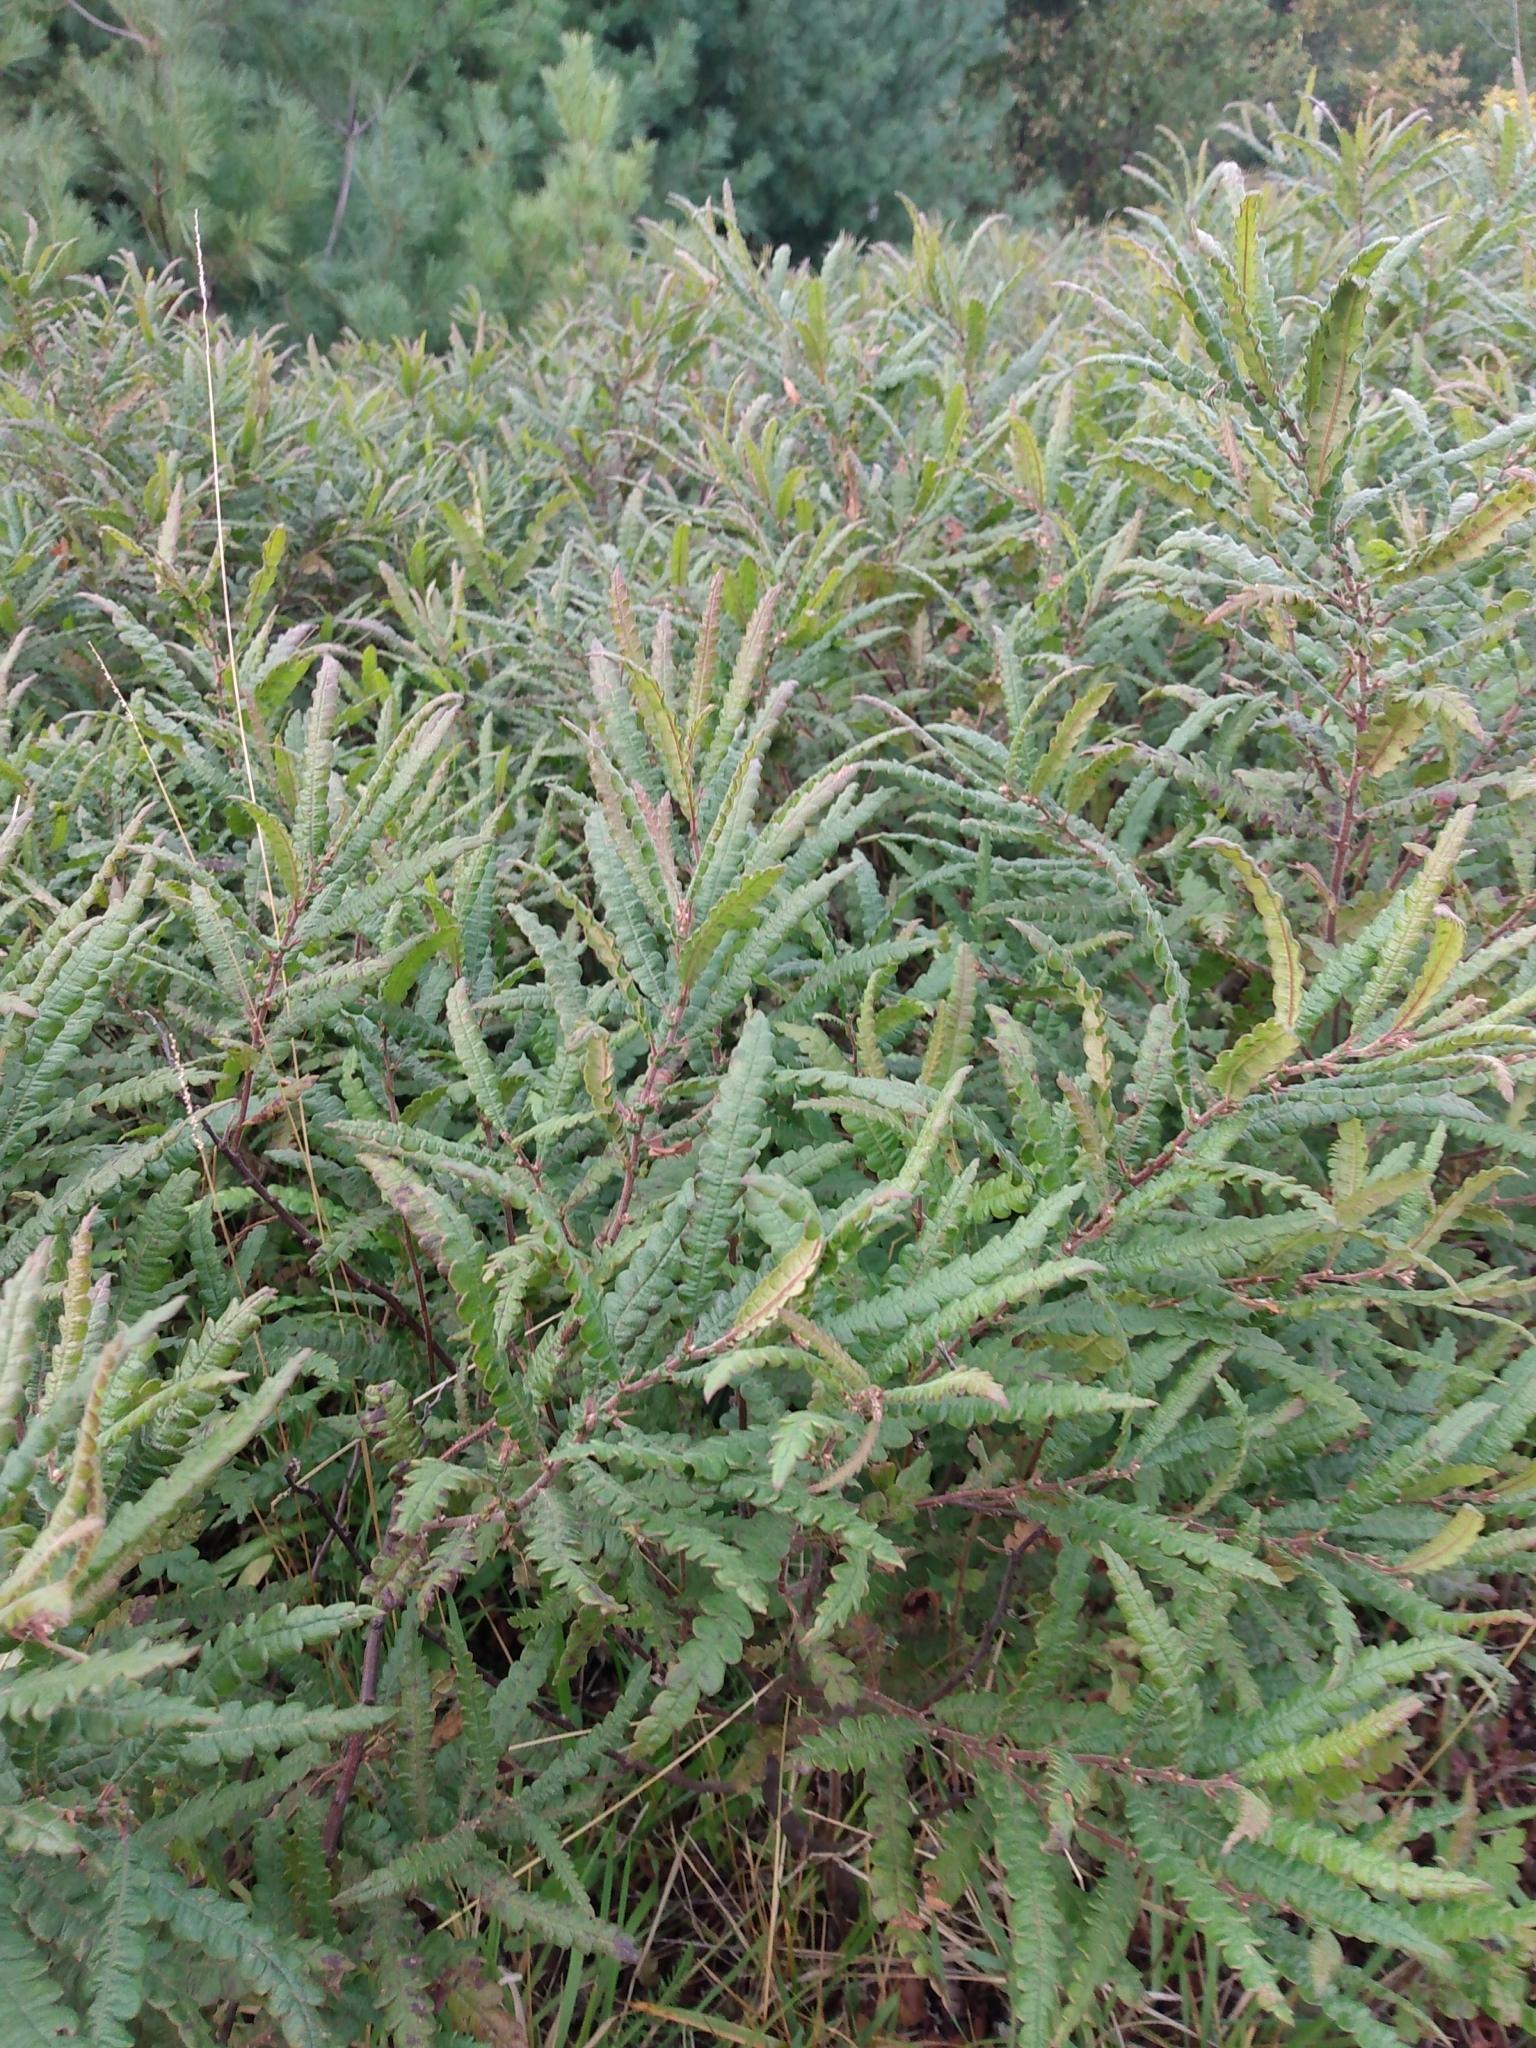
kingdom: Plantae
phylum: Tracheophyta
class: Magnoliopsida
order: Fagales
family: Myricaceae
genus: Comptonia
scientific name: Comptonia peregrina
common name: Sweet-fern
